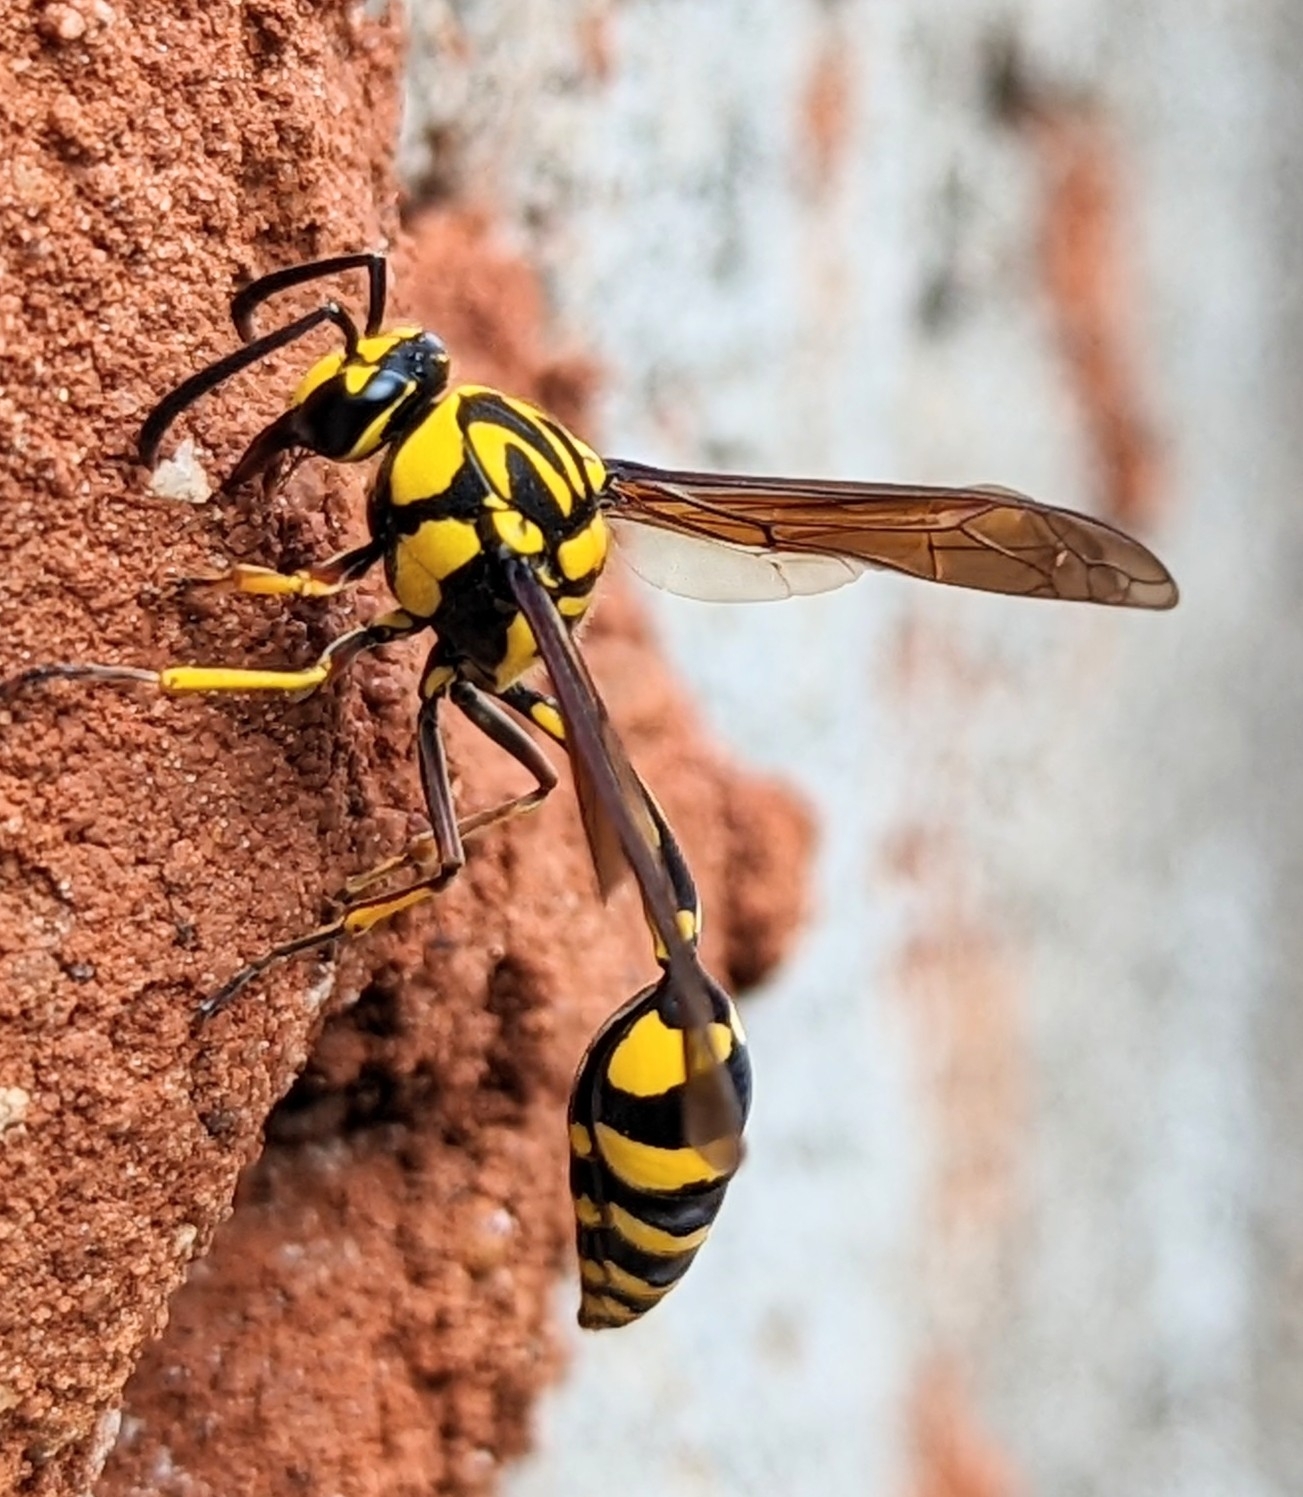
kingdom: Animalia
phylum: Arthropoda
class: Insecta
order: Hymenoptera
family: Eumenidae
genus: Phimenes
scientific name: Phimenes flavopictus
